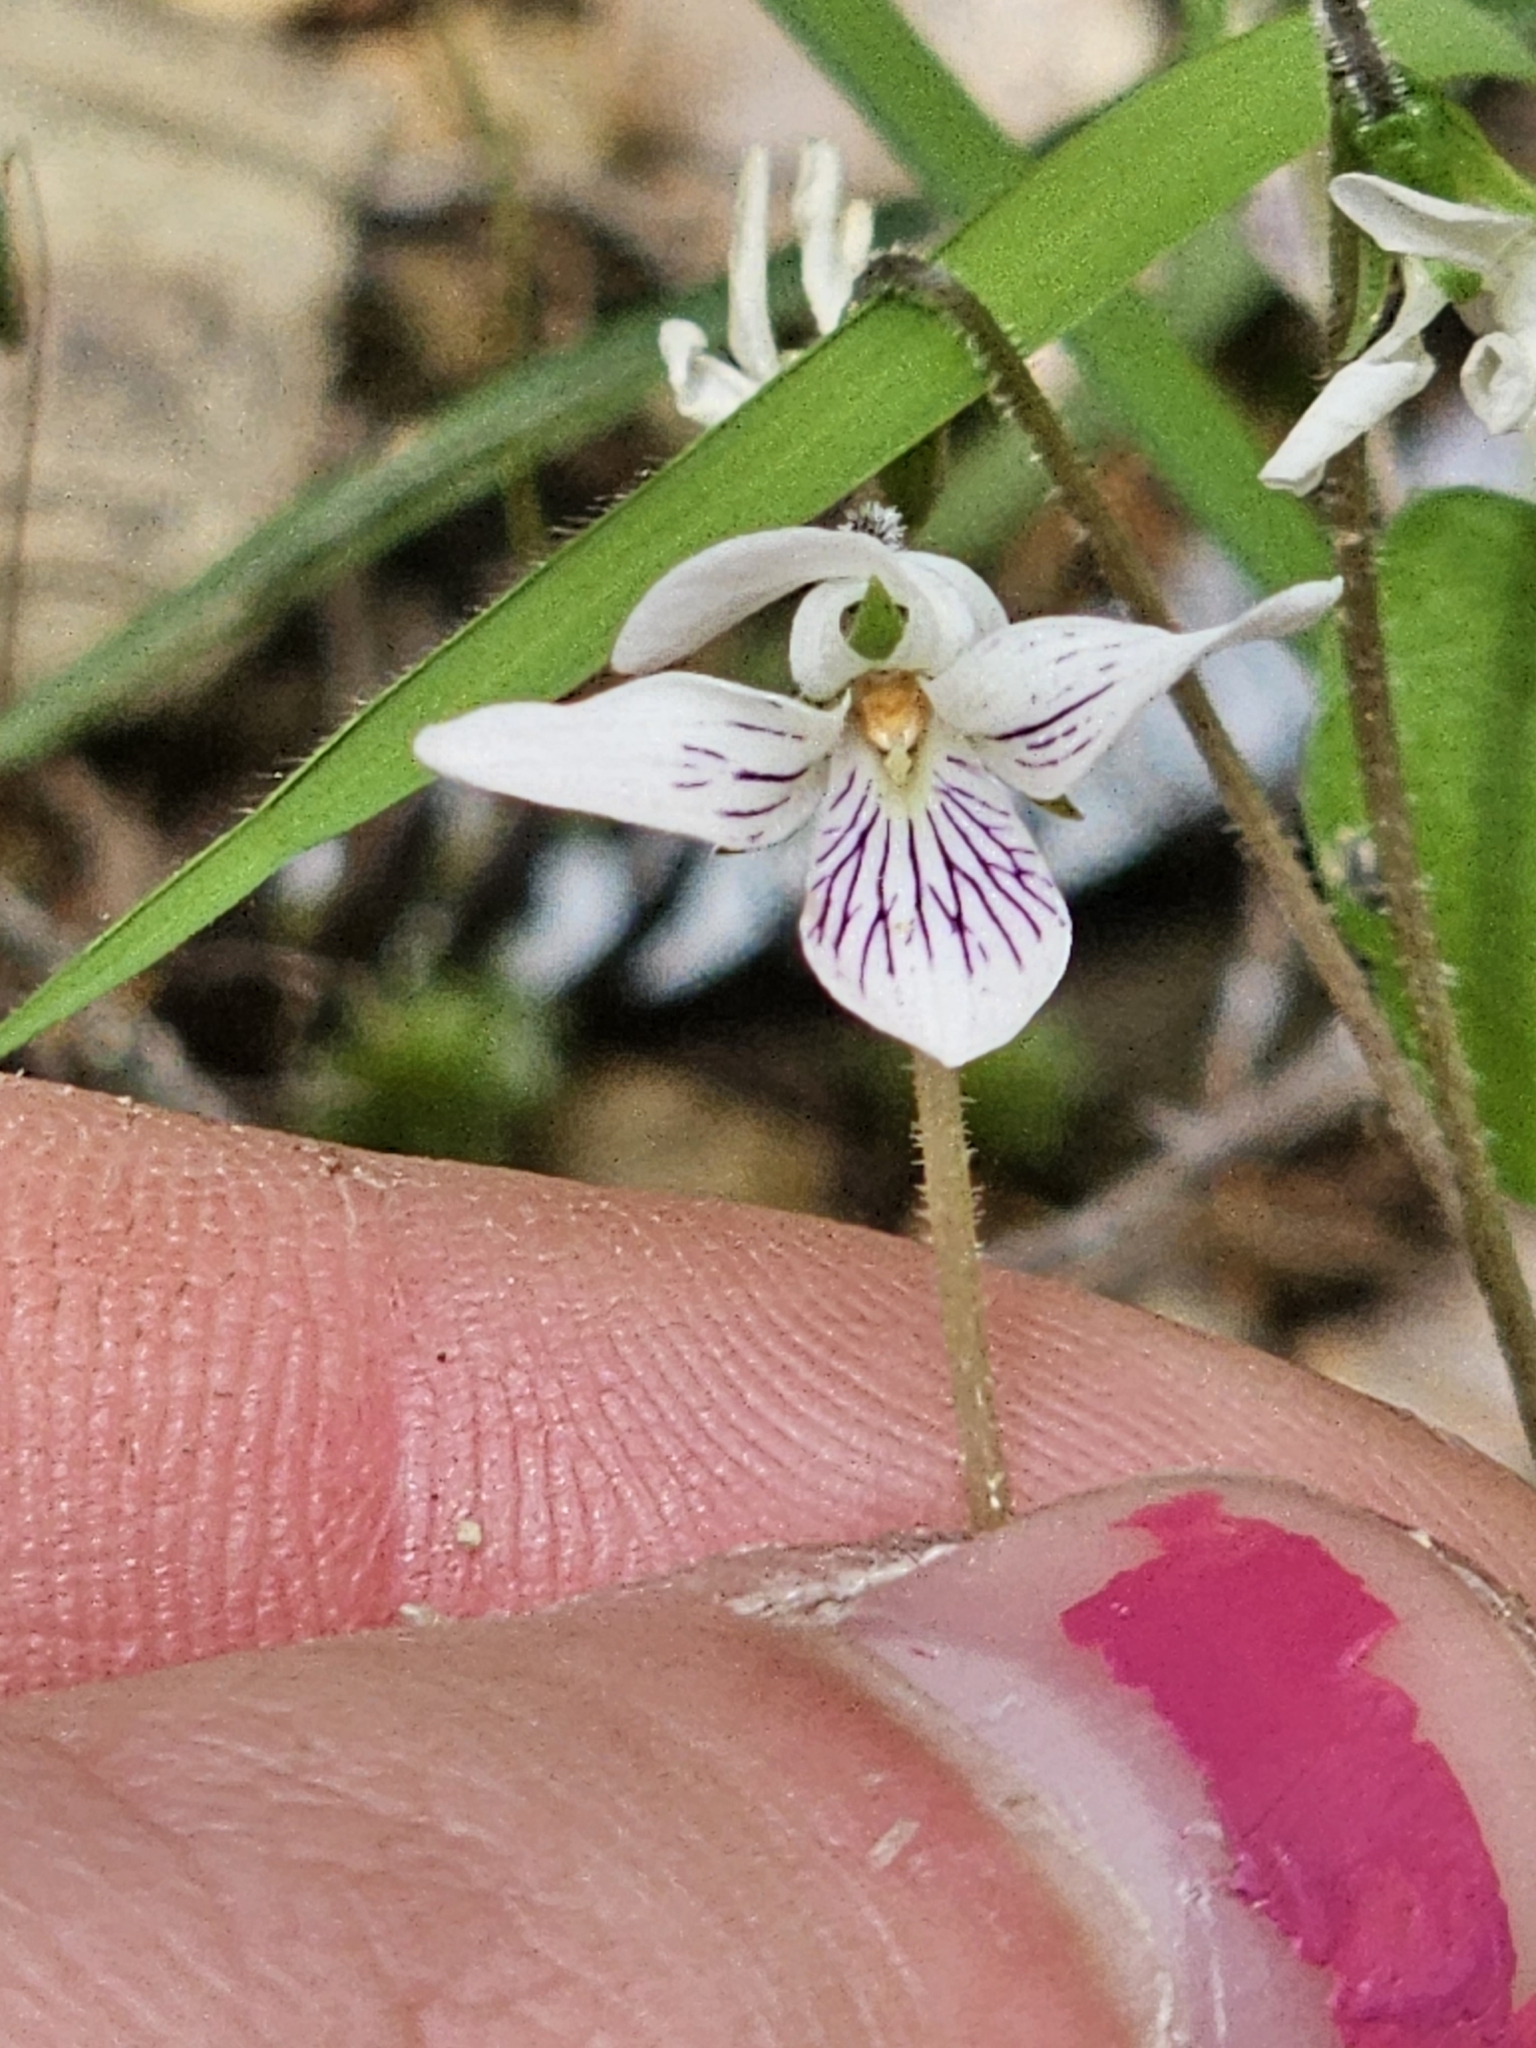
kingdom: Plantae
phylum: Tracheophyta
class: Magnoliopsida
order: Malpighiales
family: Violaceae
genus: Viola
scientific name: Viola cunninghamii
